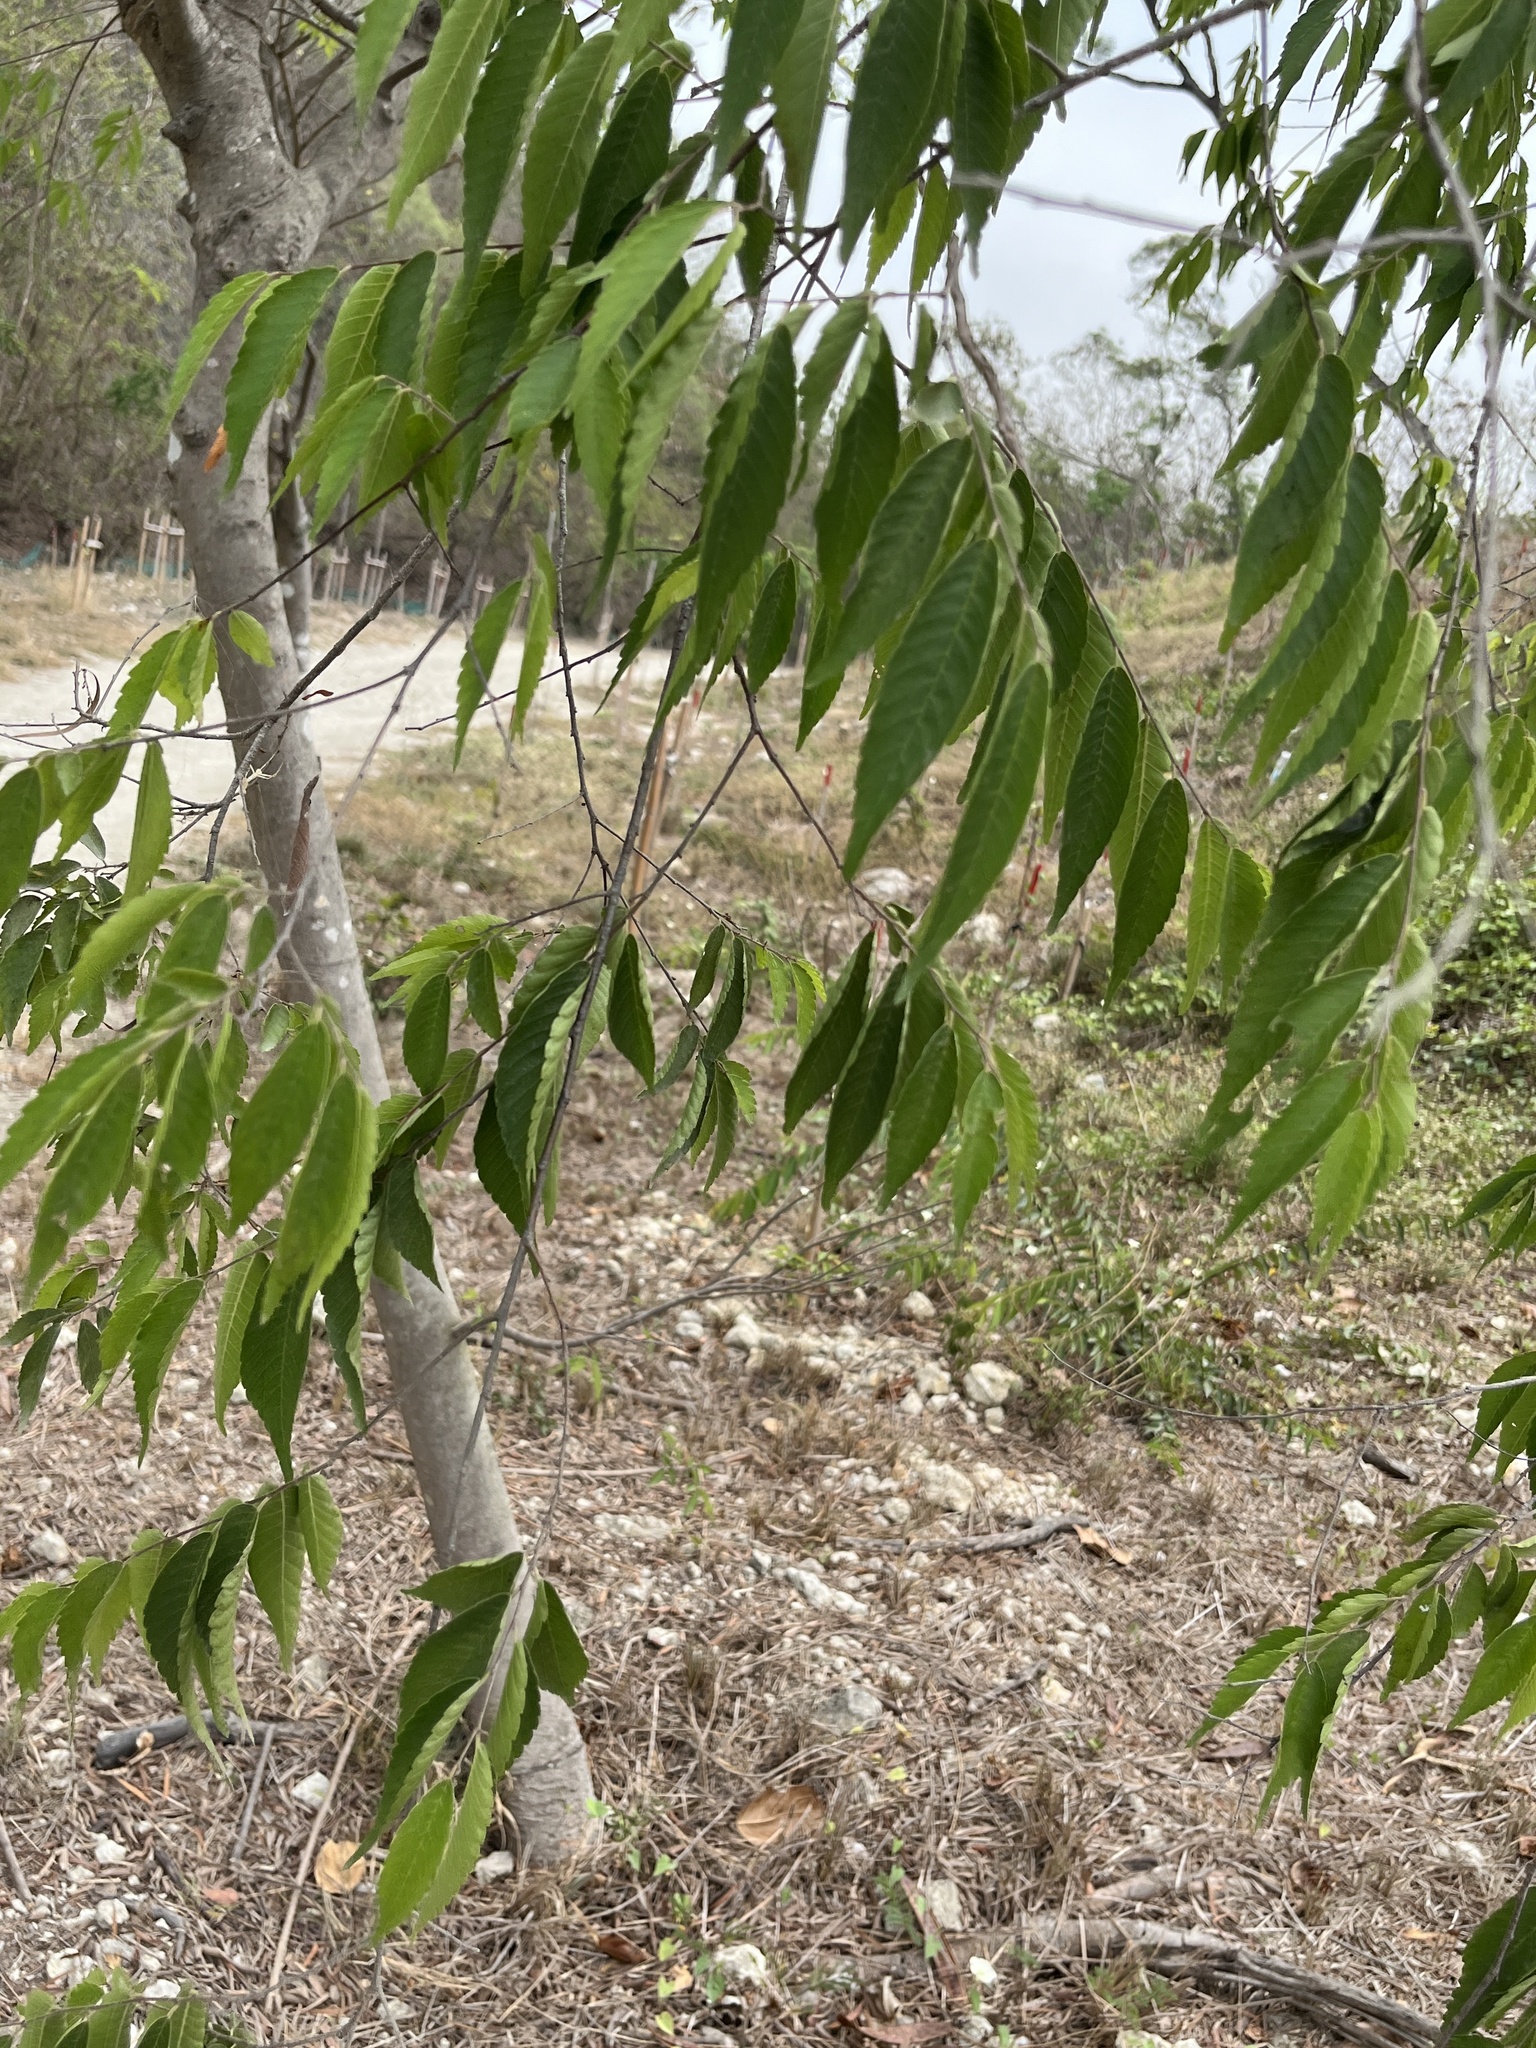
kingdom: Plantae
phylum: Tracheophyta
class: Magnoliopsida
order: Rosales
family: Cannabaceae
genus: Aphananthe
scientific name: Aphananthe aspera
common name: Mukutree
